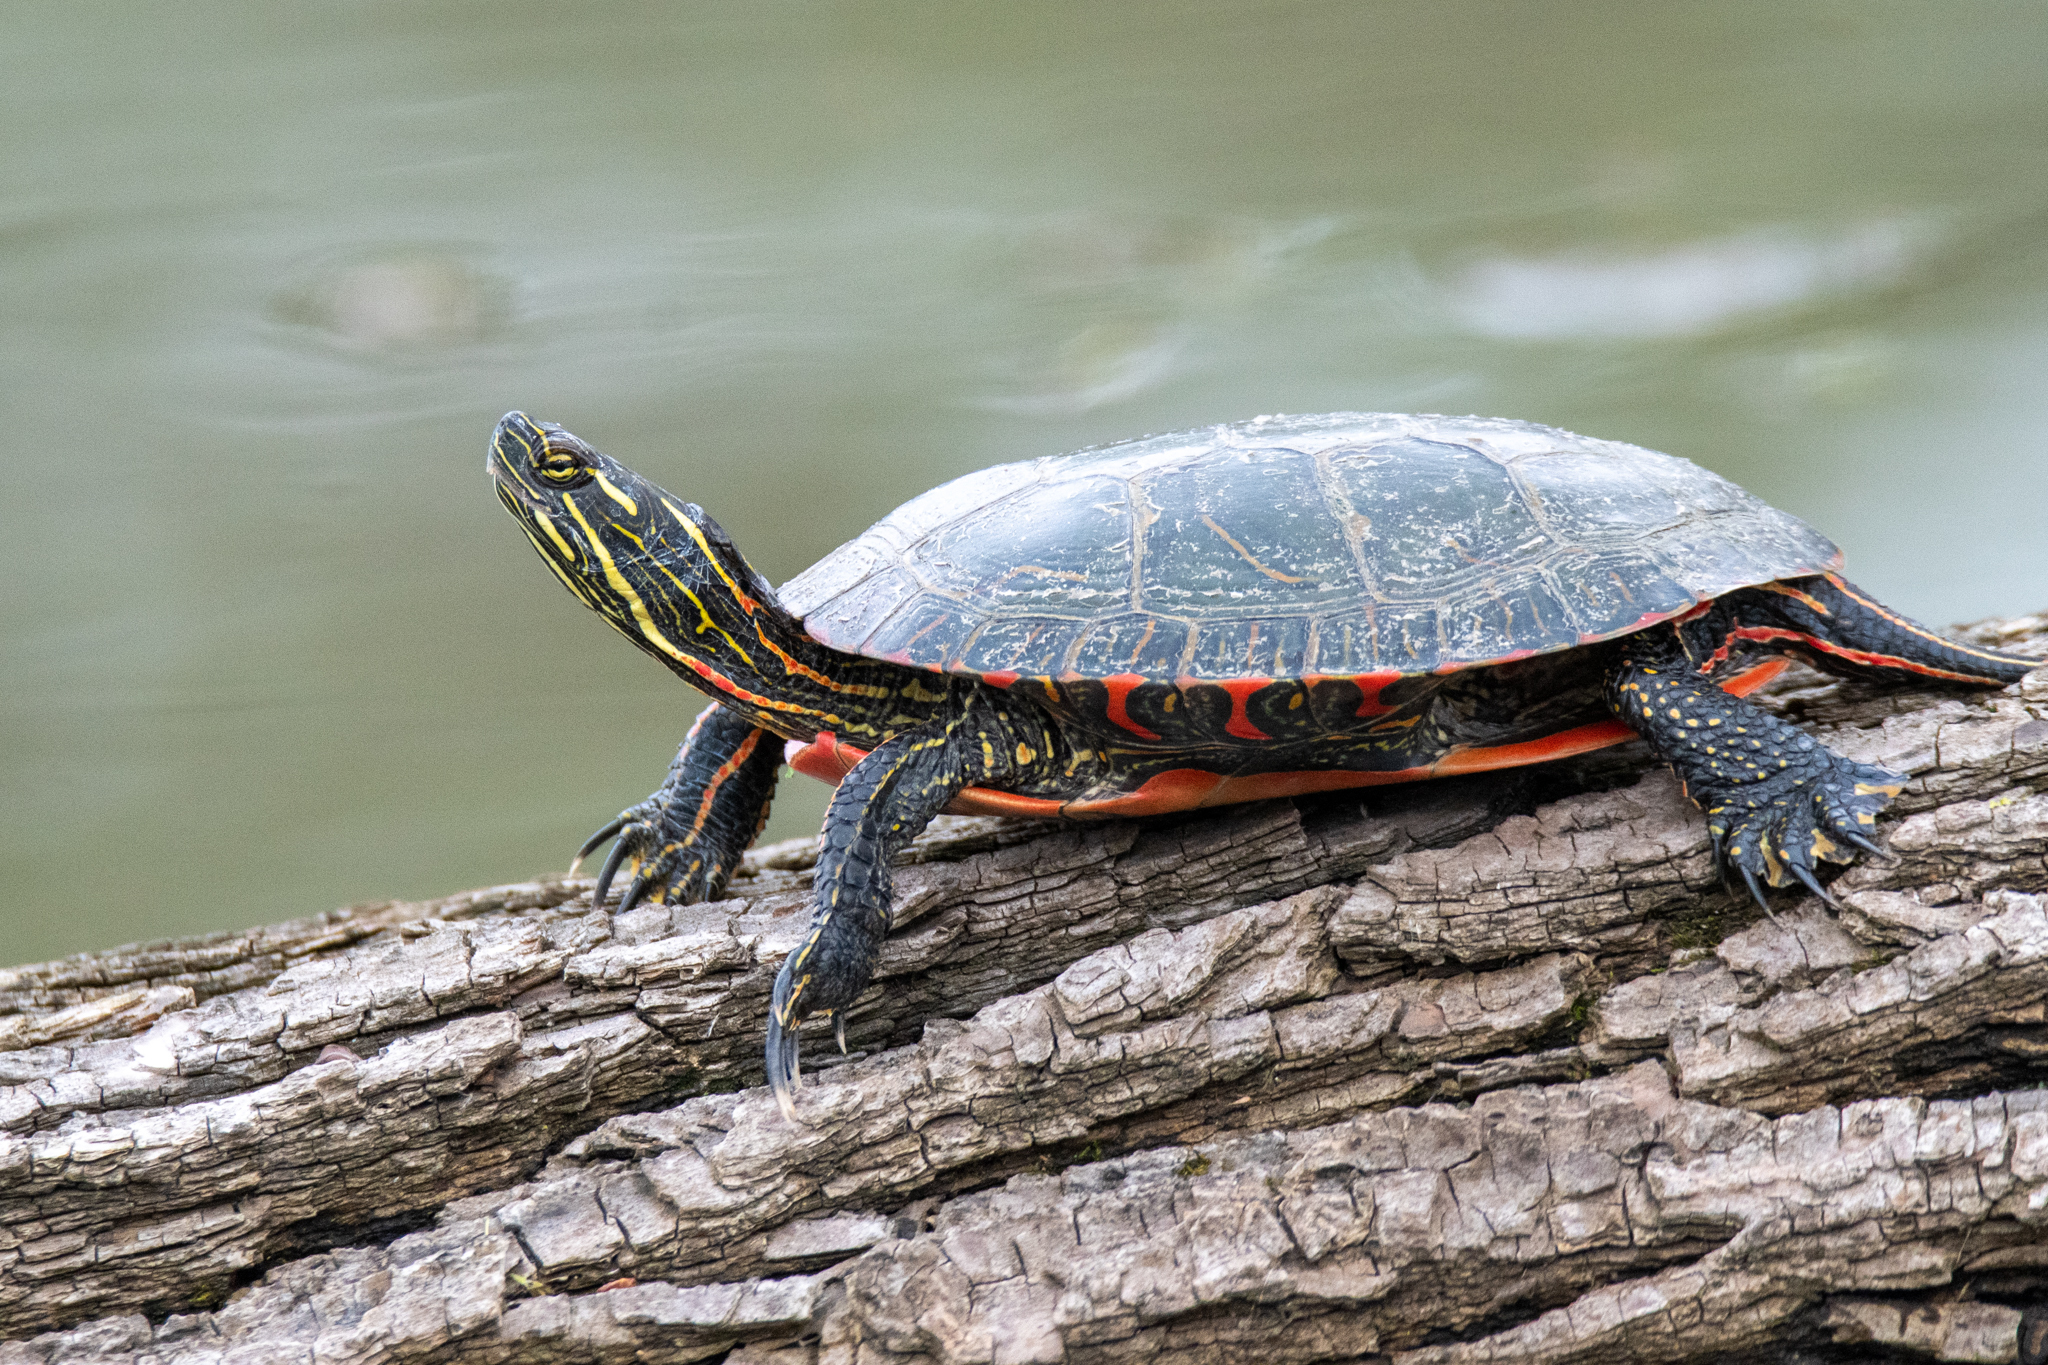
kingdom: Animalia
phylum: Chordata
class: Testudines
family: Emydidae
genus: Chrysemys
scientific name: Chrysemys picta
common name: Painted turtle
